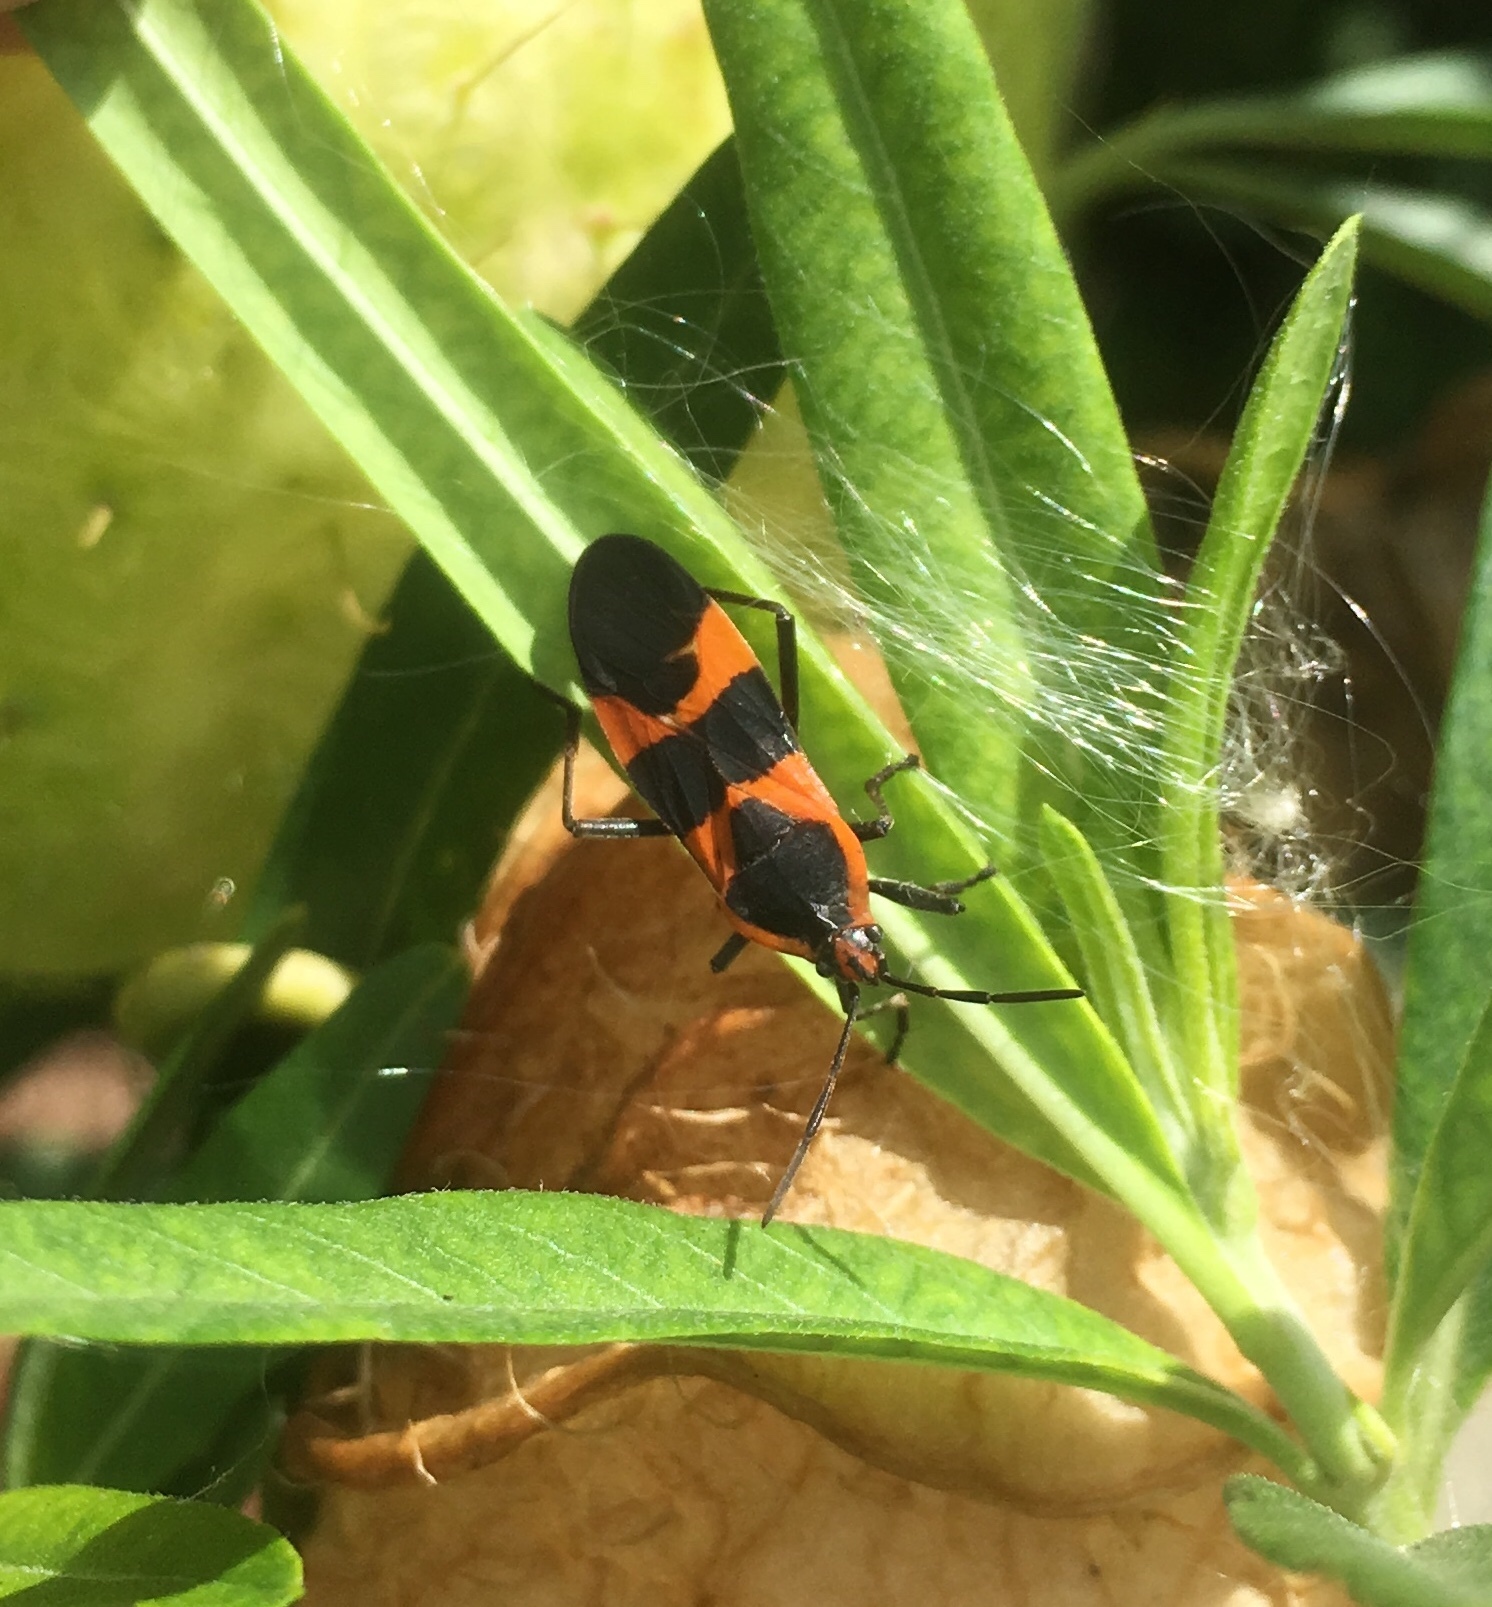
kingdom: Animalia
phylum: Arthropoda
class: Insecta
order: Hemiptera
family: Lygaeidae
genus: Oncopeltus
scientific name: Oncopeltus fasciatus
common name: Large milkweed bug
